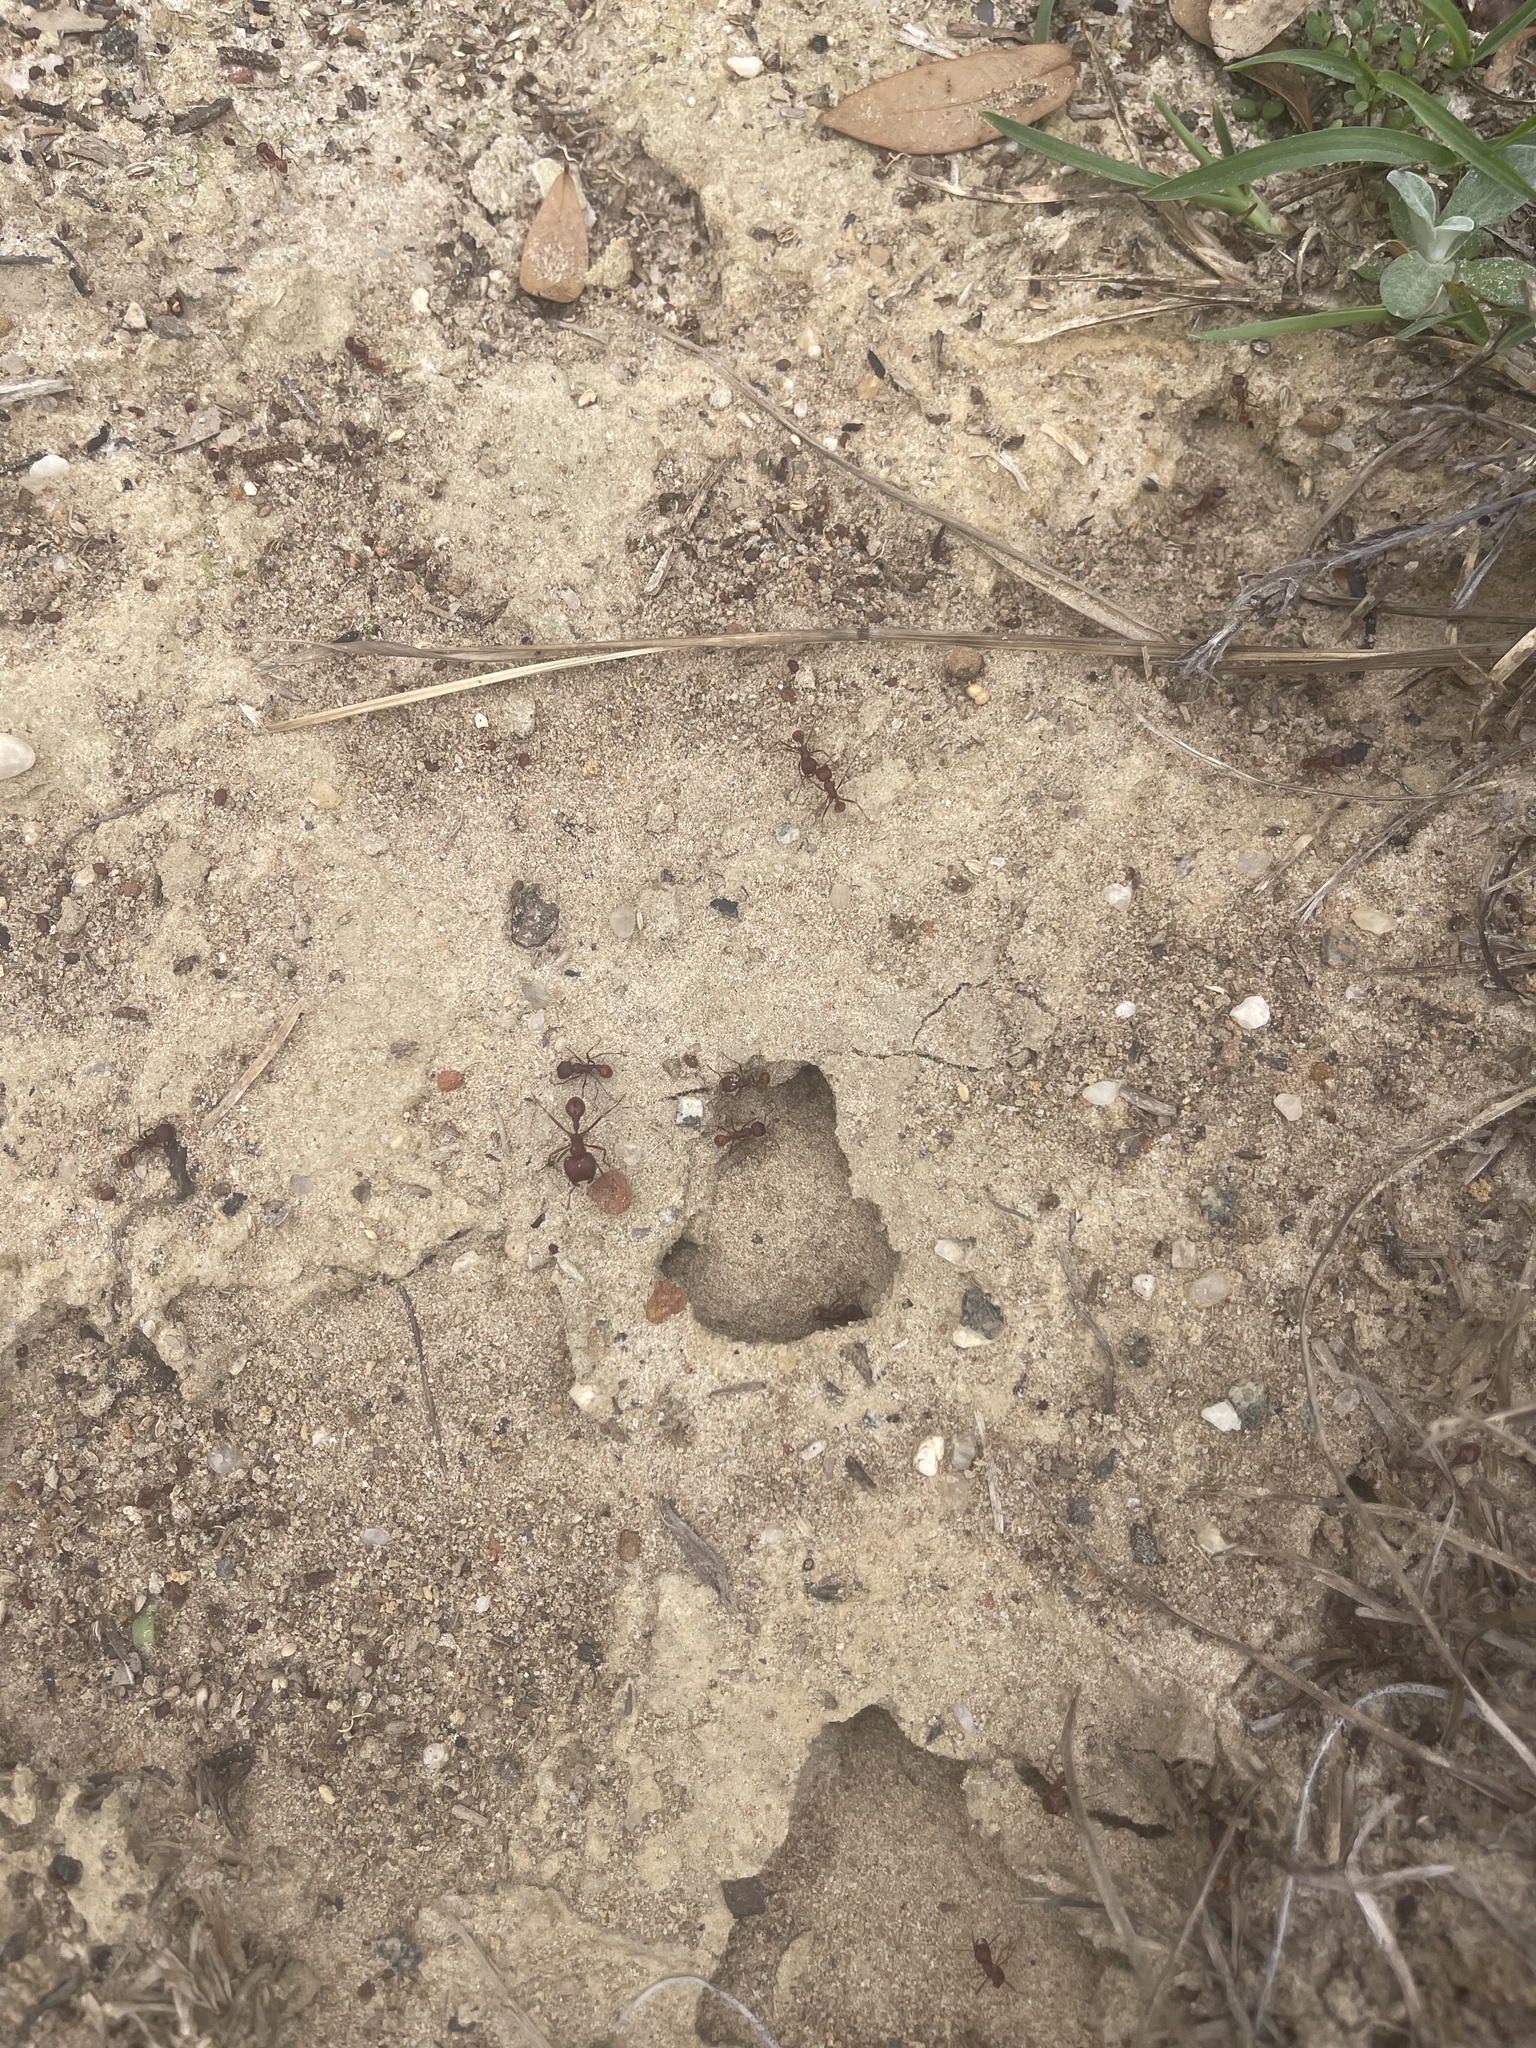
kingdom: Animalia
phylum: Arthropoda
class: Insecta
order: Hymenoptera
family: Formicidae
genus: Pogonomyrmex
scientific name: Pogonomyrmex badius
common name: Florida harvester ant
